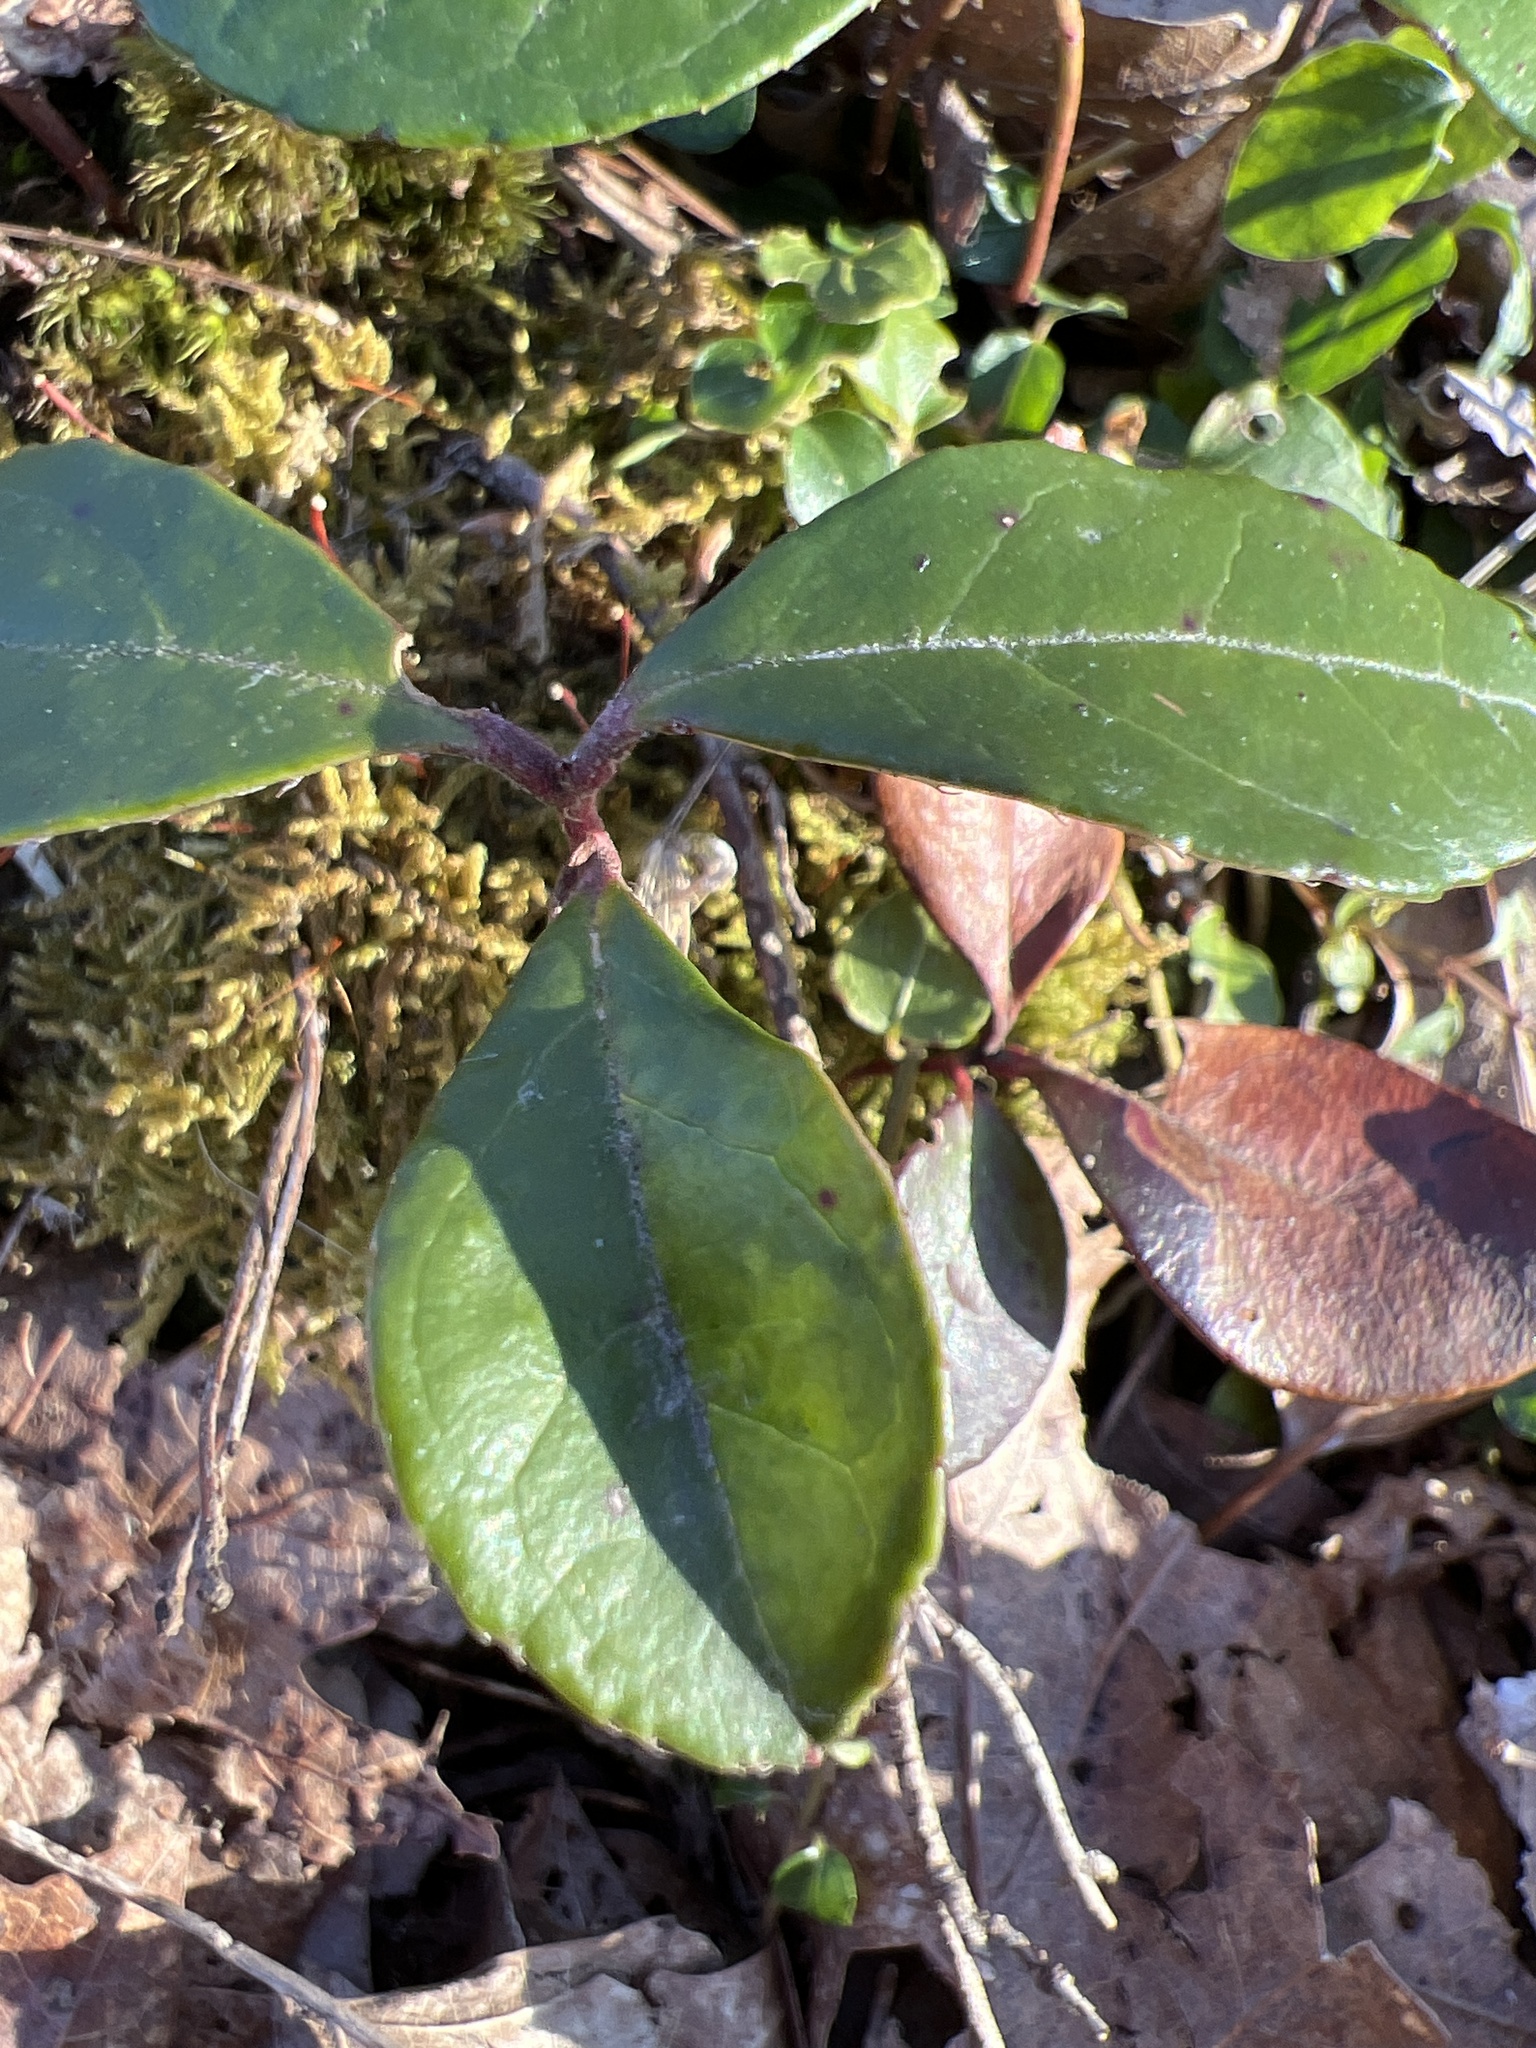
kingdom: Plantae
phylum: Tracheophyta
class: Magnoliopsida
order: Ericales
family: Ericaceae
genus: Gaultheria
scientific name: Gaultheria procumbens
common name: Checkerberry
